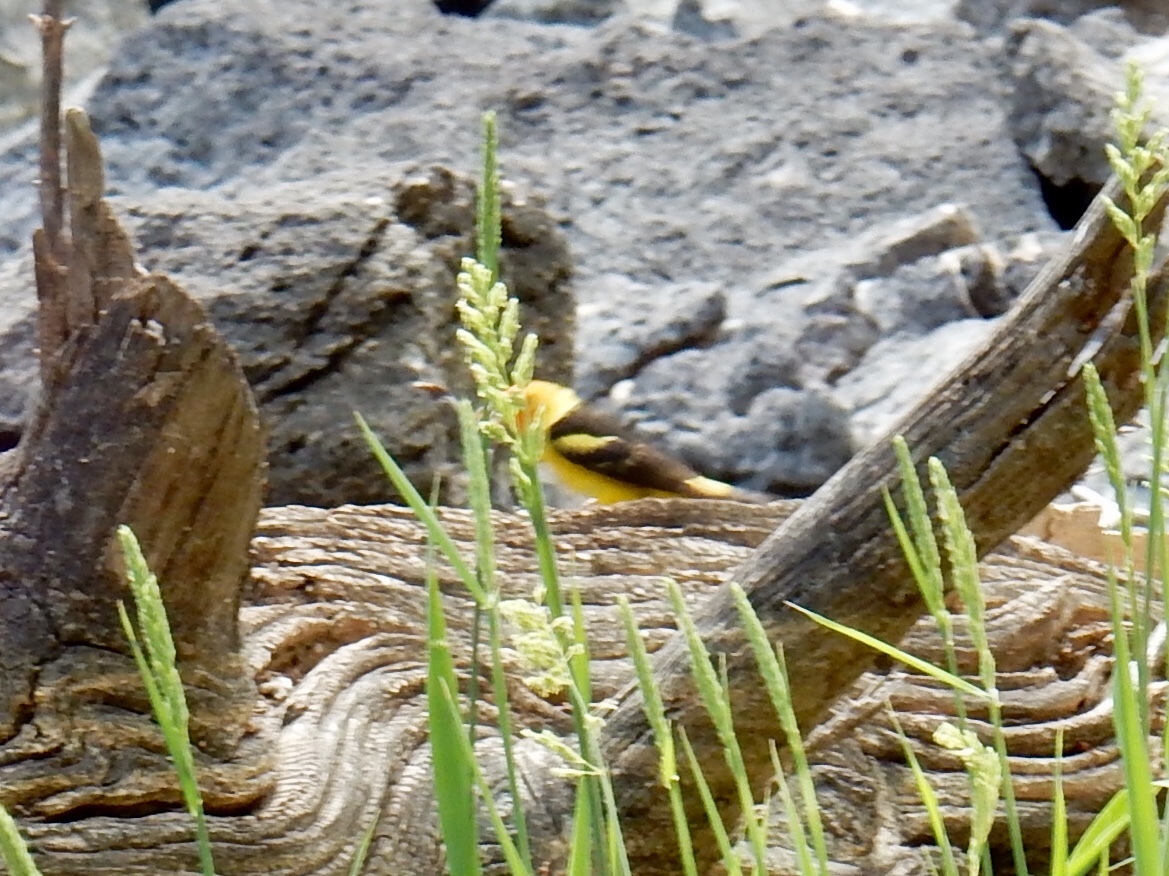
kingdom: Animalia
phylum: Chordata
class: Aves
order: Passeriformes
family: Cardinalidae
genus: Piranga
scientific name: Piranga ludoviciana
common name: Western tanager
